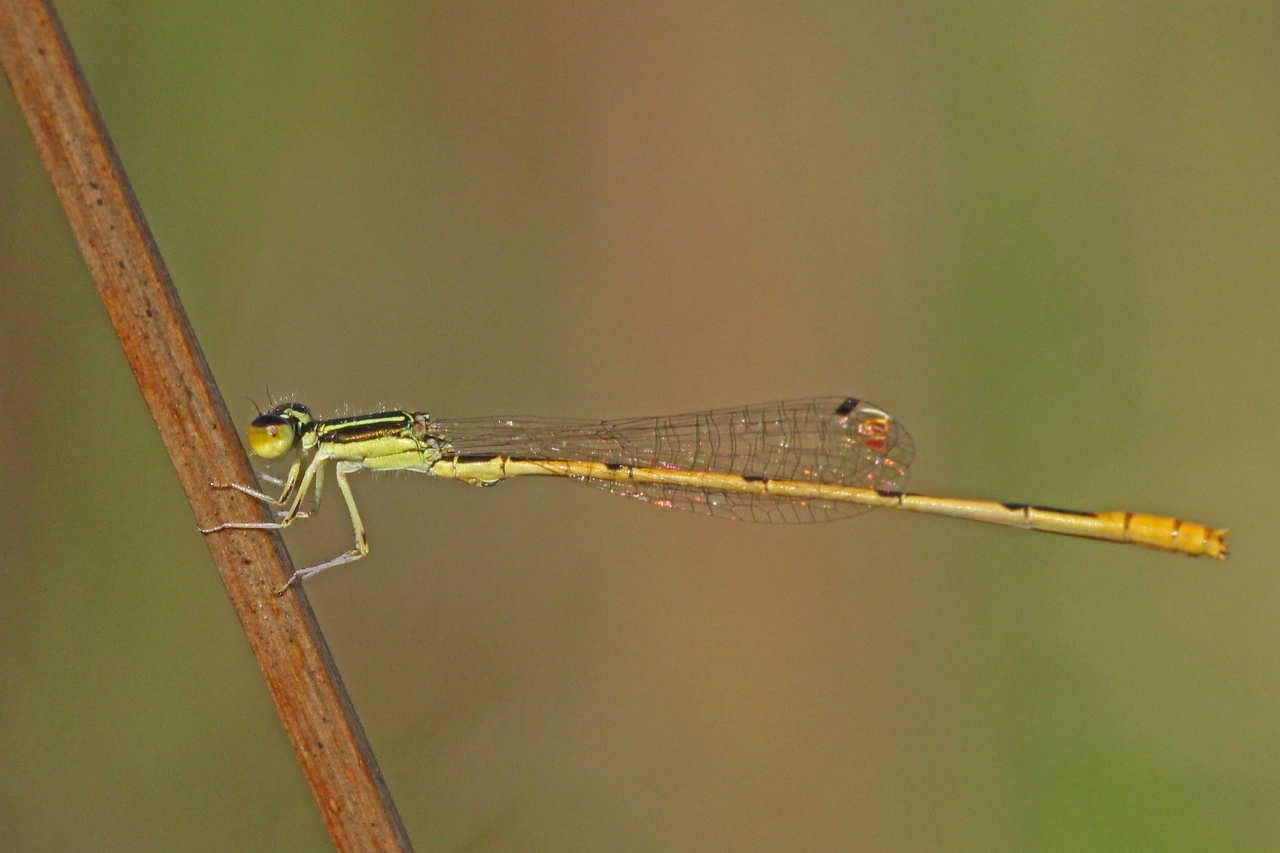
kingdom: Animalia
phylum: Arthropoda
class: Insecta
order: Odonata
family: Coenagrionidae
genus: Ischnura
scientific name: Ischnura hastata
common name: Citrine forktail
